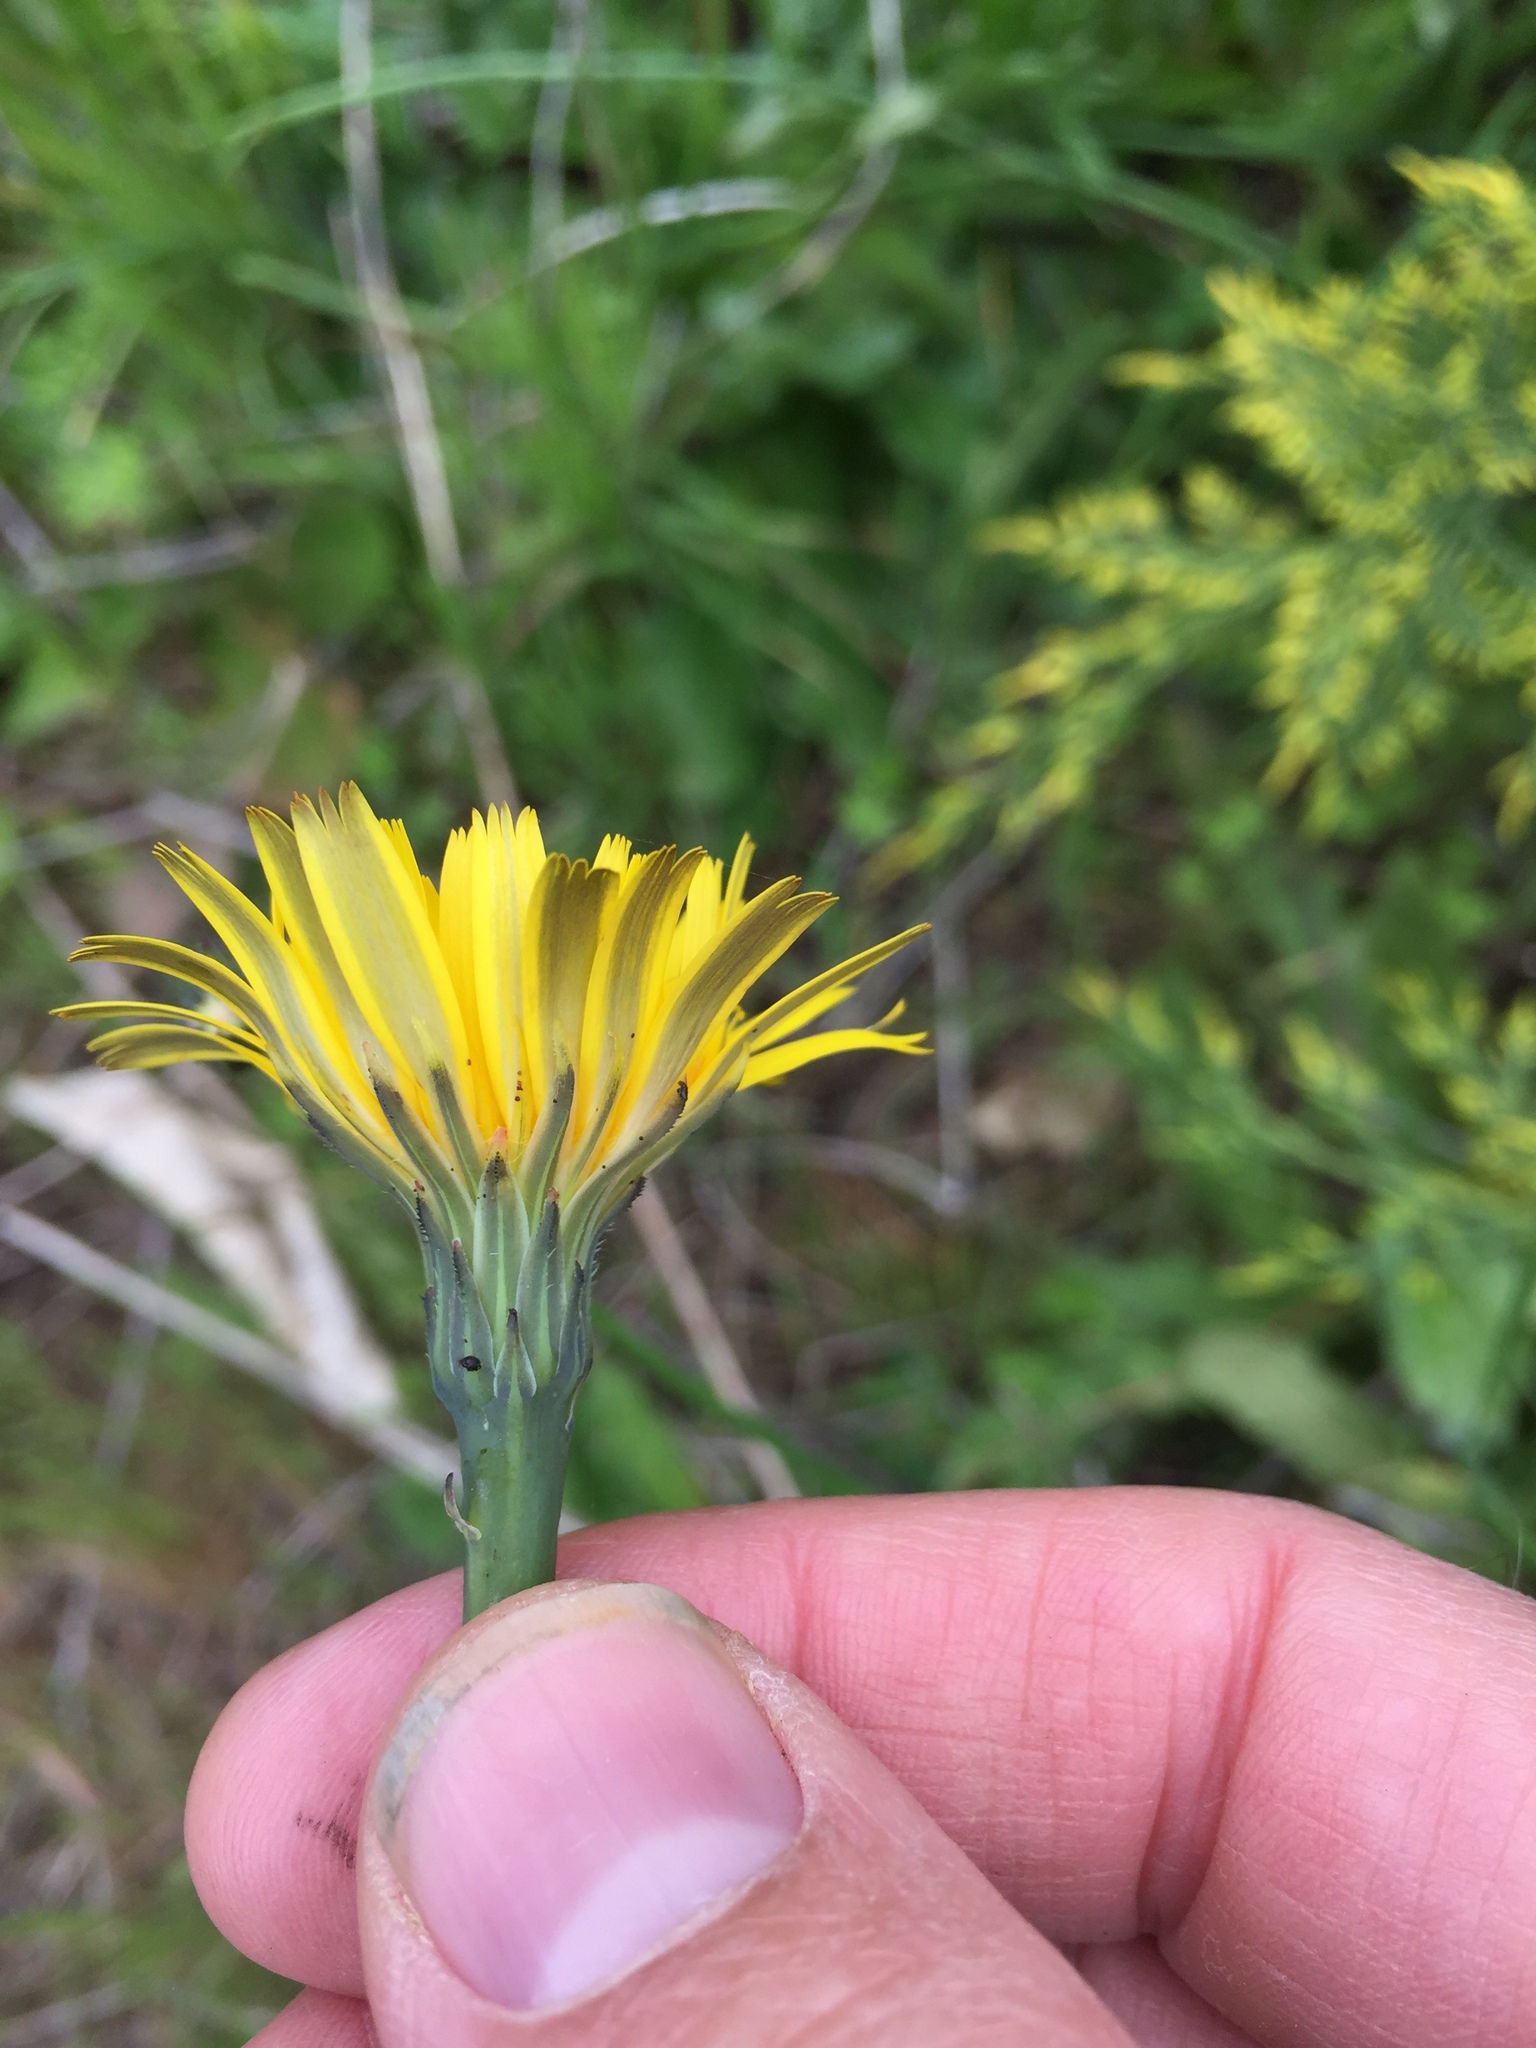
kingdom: Plantae
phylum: Tracheophyta
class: Magnoliopsida
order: Asterales
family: Asteraceae
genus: Hypochaeris
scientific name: Hypochaeris radicata
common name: Flatweed
